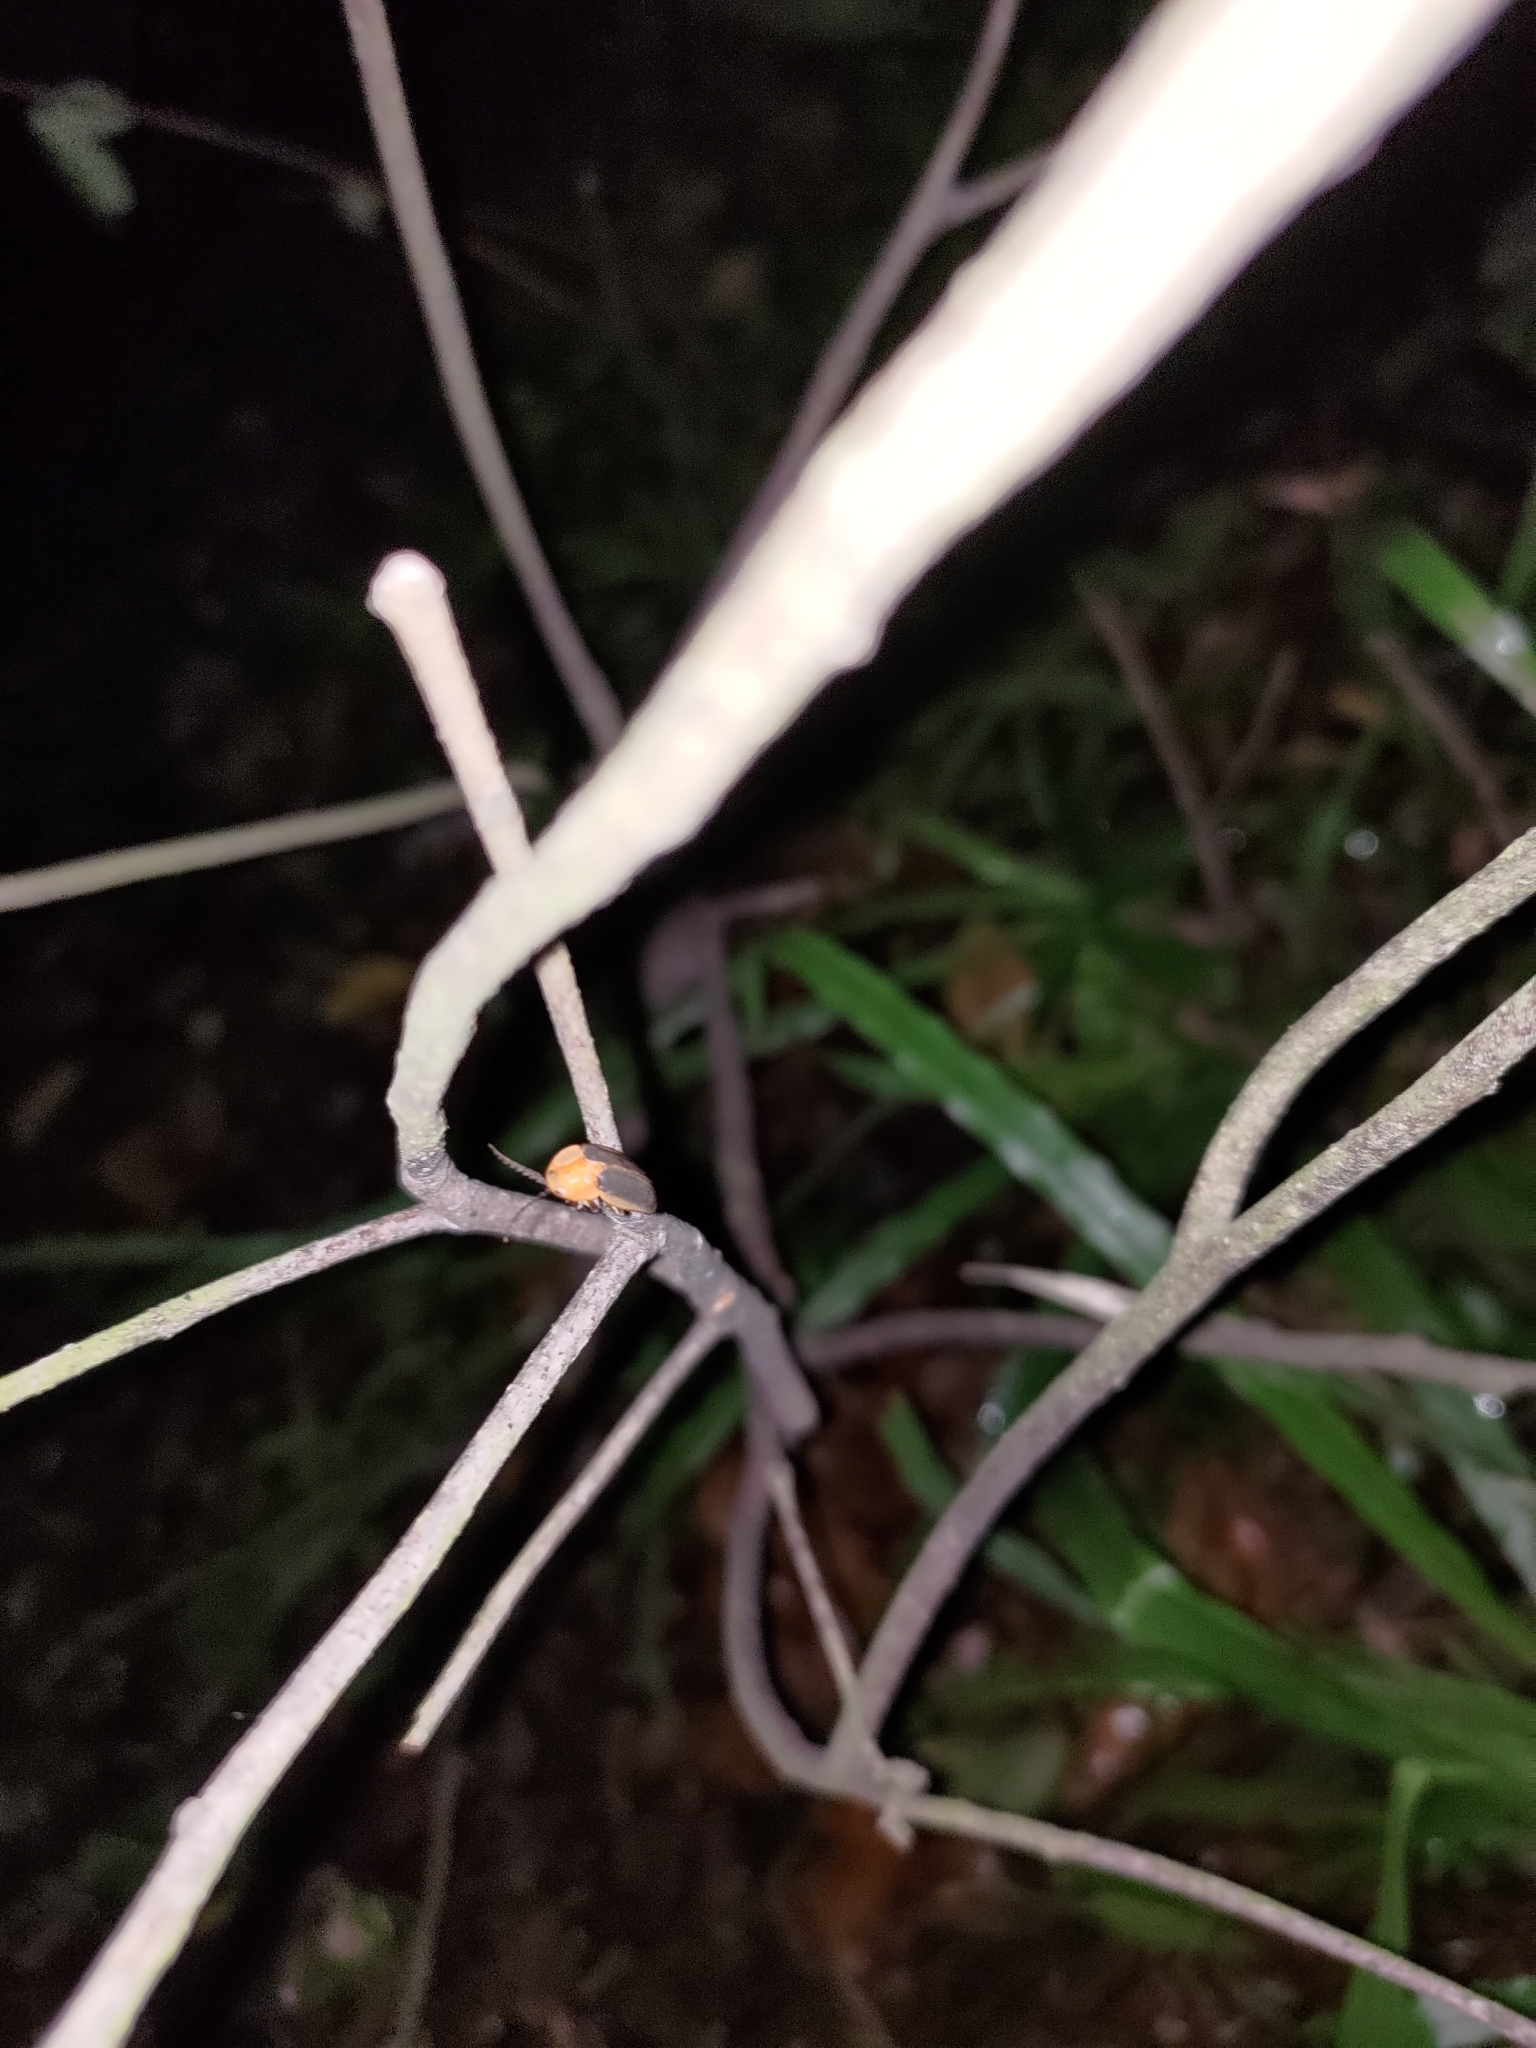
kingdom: Animalia
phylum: Arthropoda
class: Insecta
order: Coleoptera
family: Lampyridae
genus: Pyrocoelia
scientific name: Pyrocoelia analis
